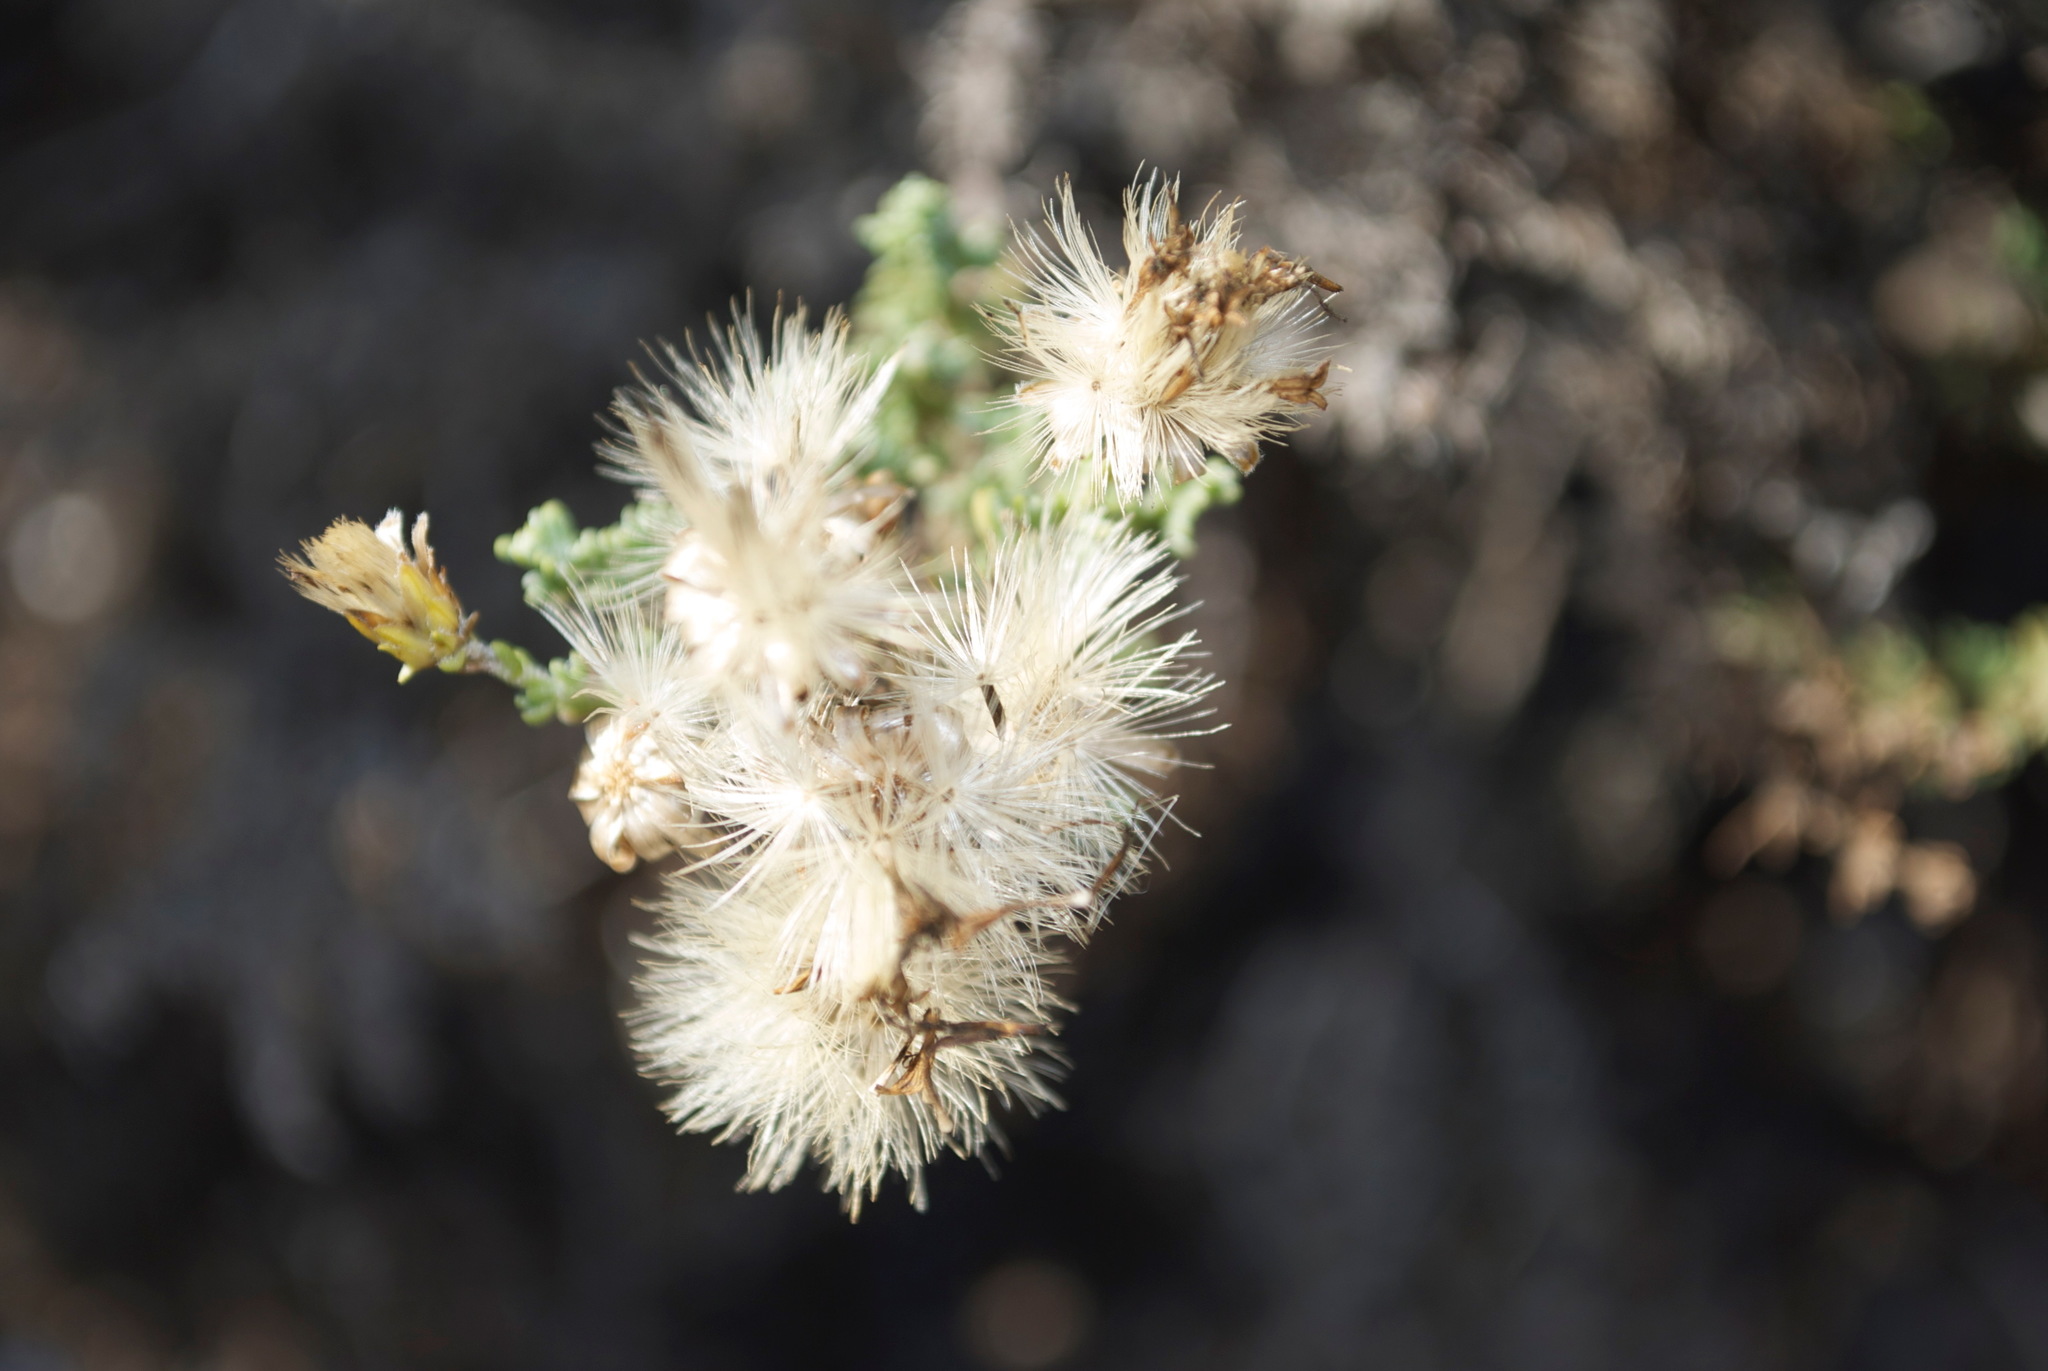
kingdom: Plantae
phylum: Tracheophyta
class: Magnoliopsida
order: Asterales
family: Asteraceae
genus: Ericameria
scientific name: Ericameria ericoides
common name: California goldenbush
